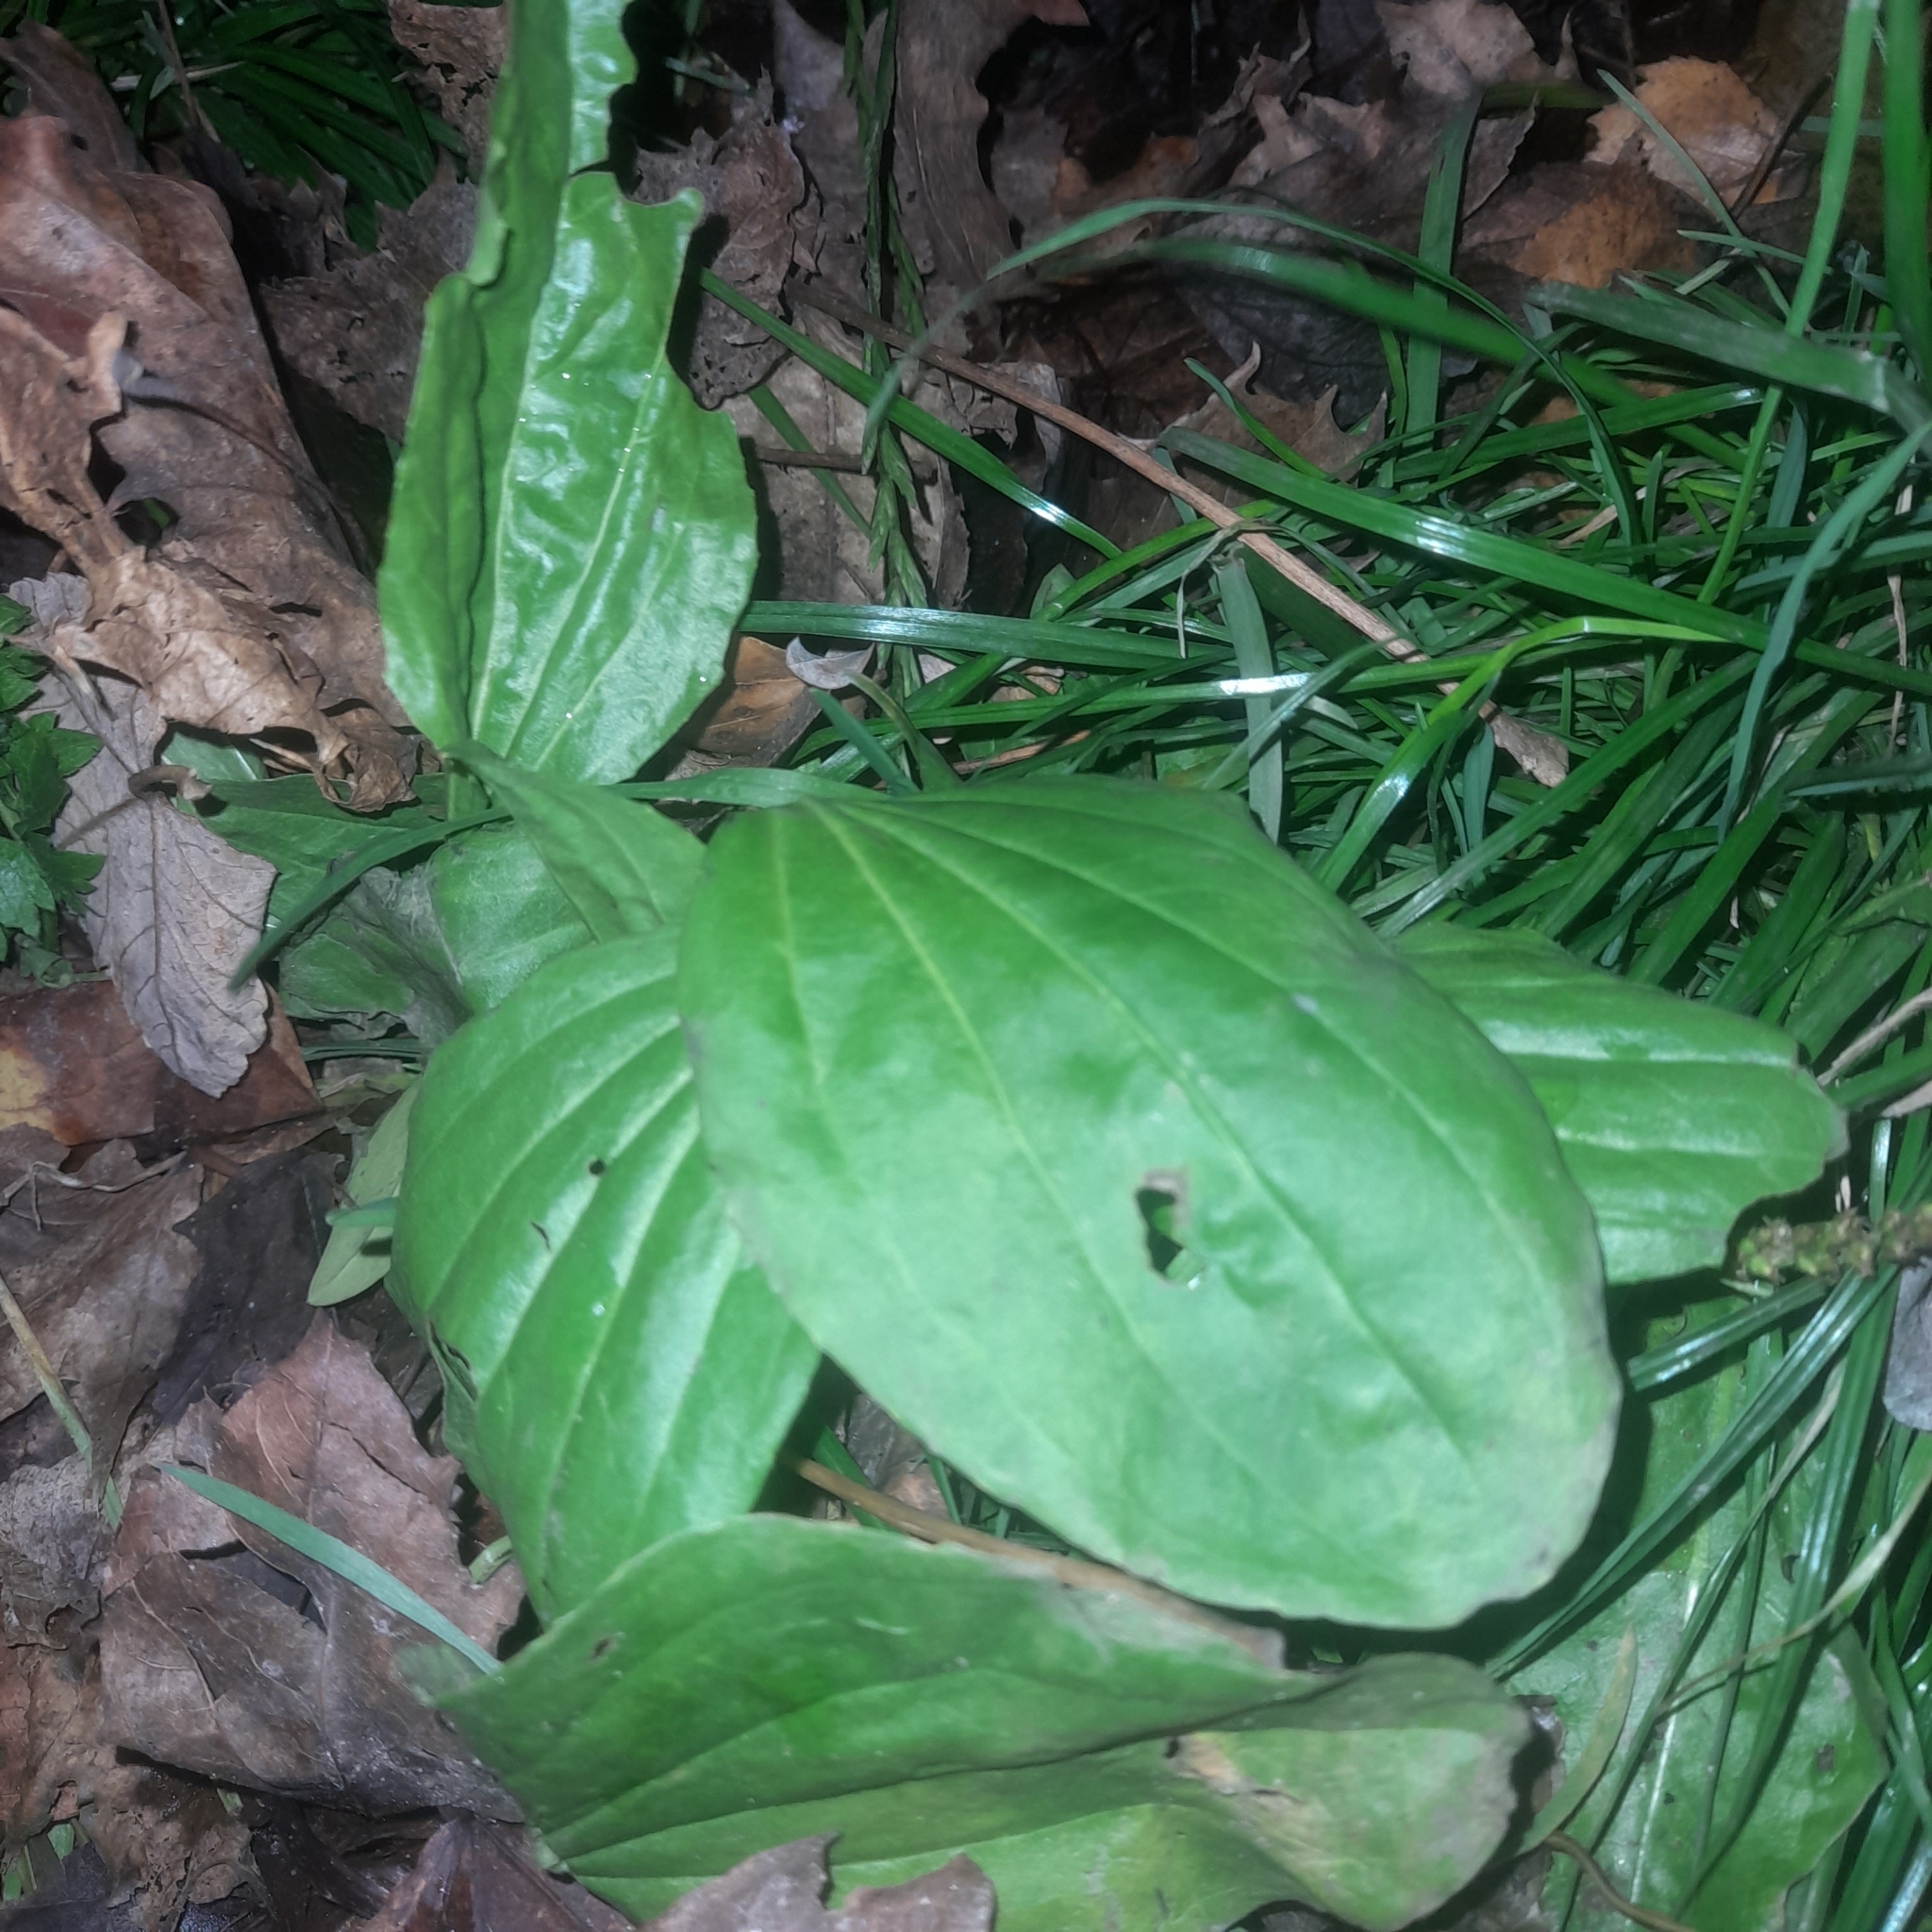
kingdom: Plantae
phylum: Tracheophyta
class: Magnoliopsida
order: Lamiales
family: Plantaginaceae
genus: Plantago
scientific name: Plantago major
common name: Common plantain
